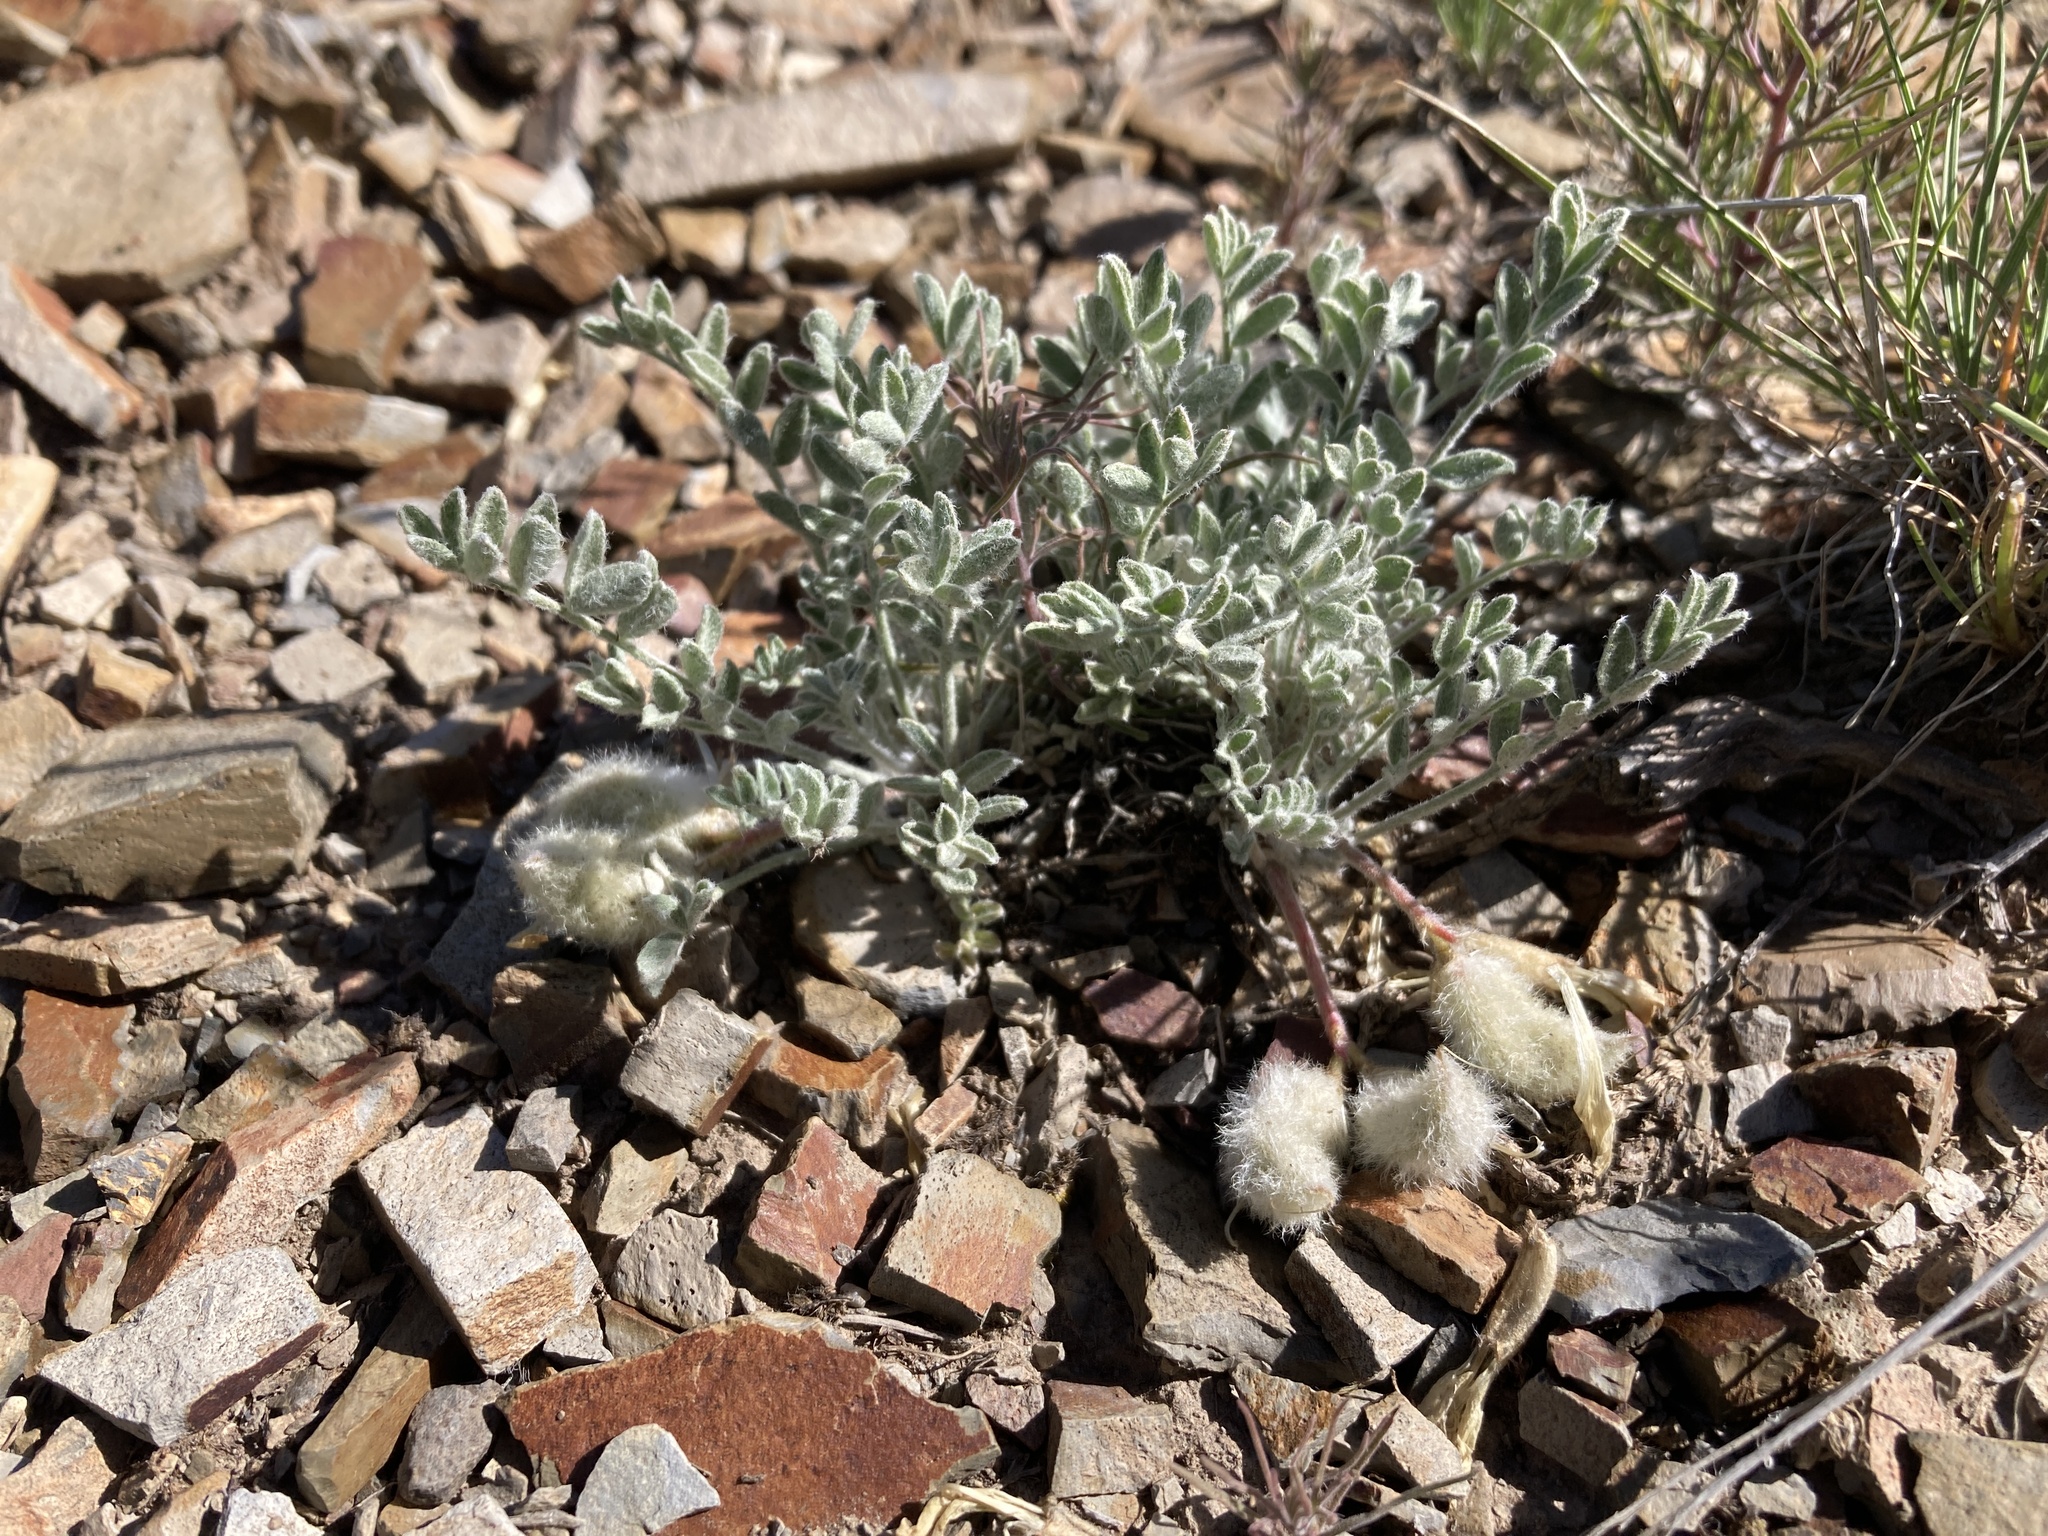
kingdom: Plantae
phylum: Tracheophyta
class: Magnoliopsida
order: Fabales
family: Fabaceae
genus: Astragalus
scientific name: Astragalus purshii
